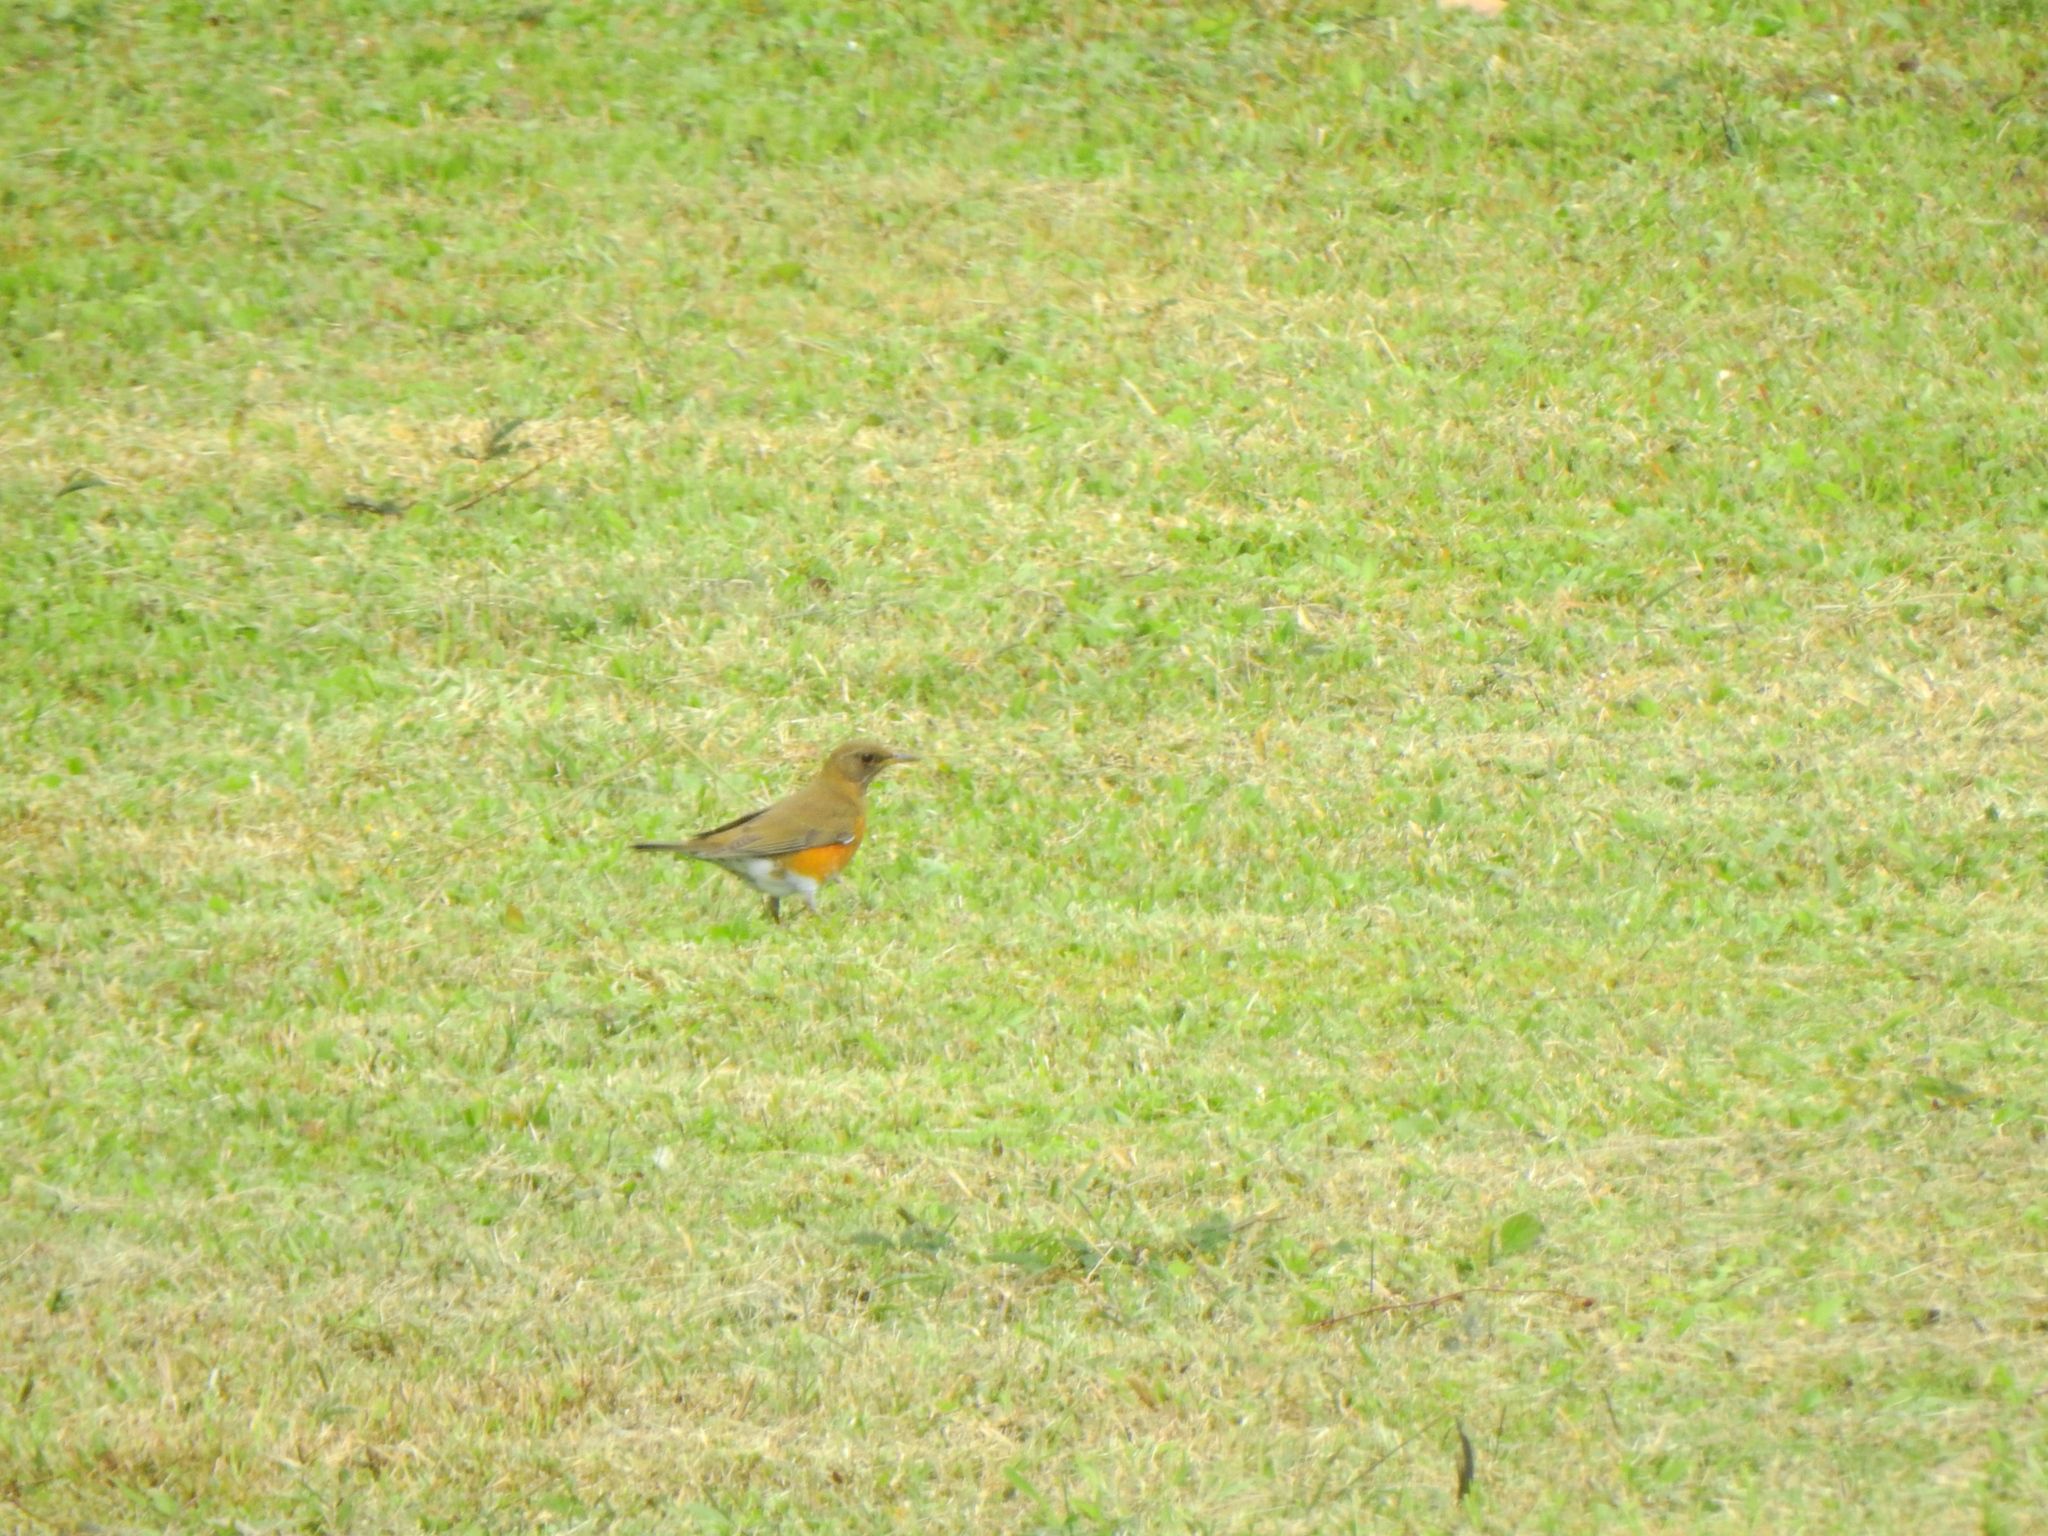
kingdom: Animalia
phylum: Chordata
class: Aves
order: Passeriformes
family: Turdidae
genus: Turdus
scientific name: Turdus chrysolaus
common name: Brown-headed thrush
